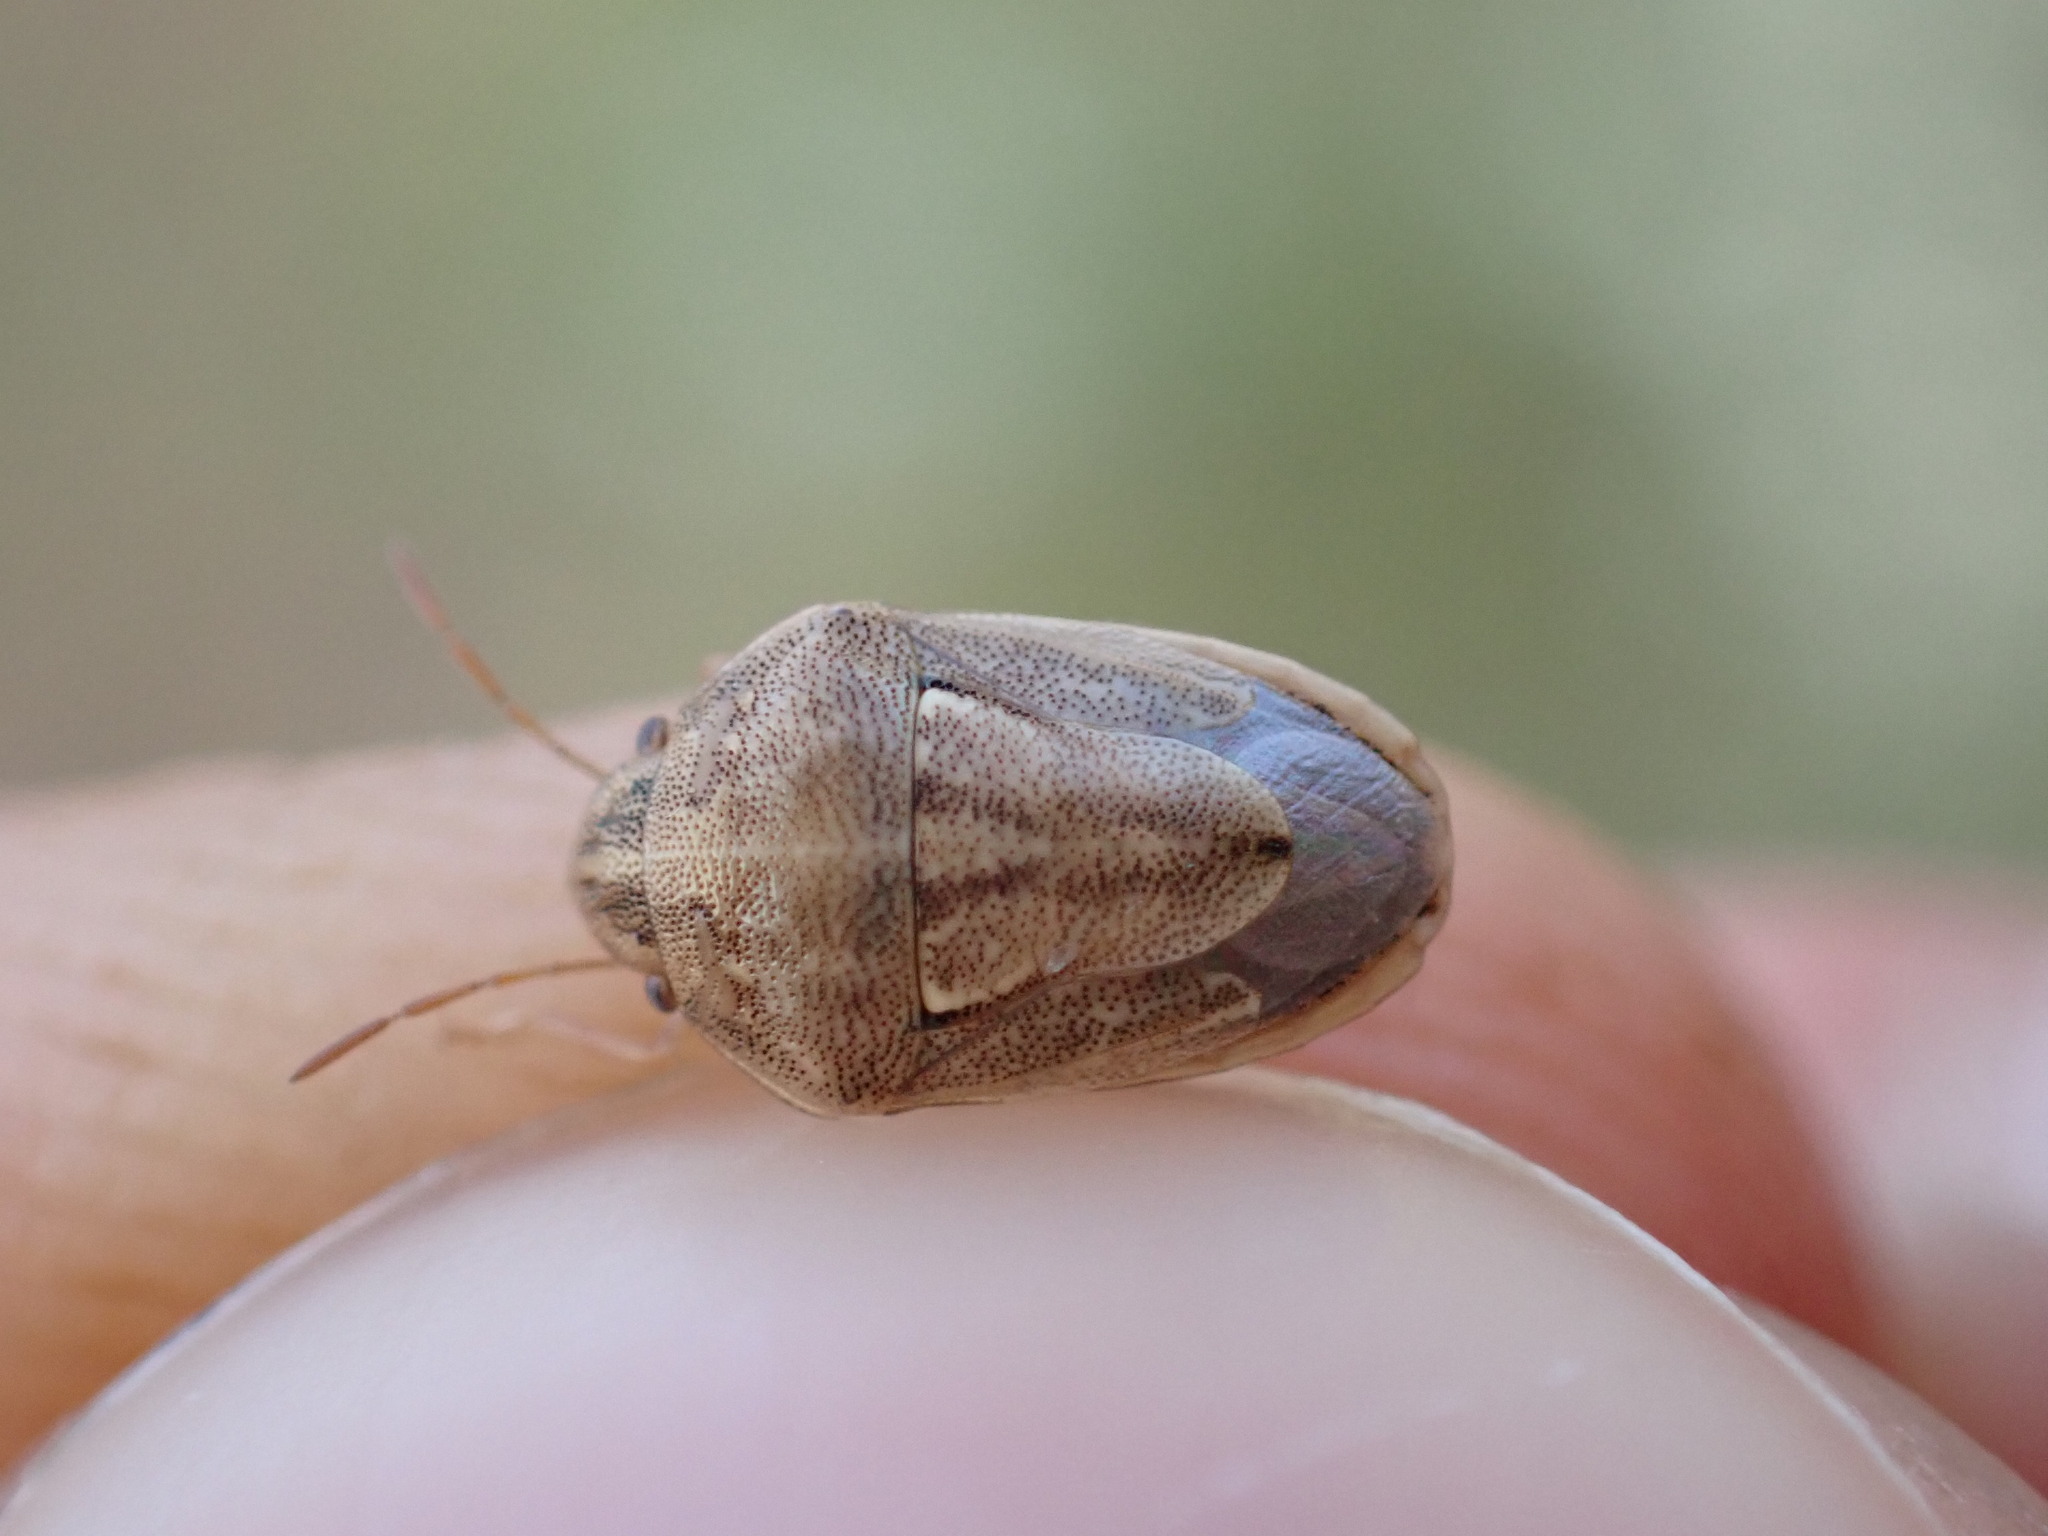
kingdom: Animalia
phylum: Arthropoda
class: Insecta
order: Hemiptera
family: Pentatomidae
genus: Neottiglossa
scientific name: Neottiglossa bifida
